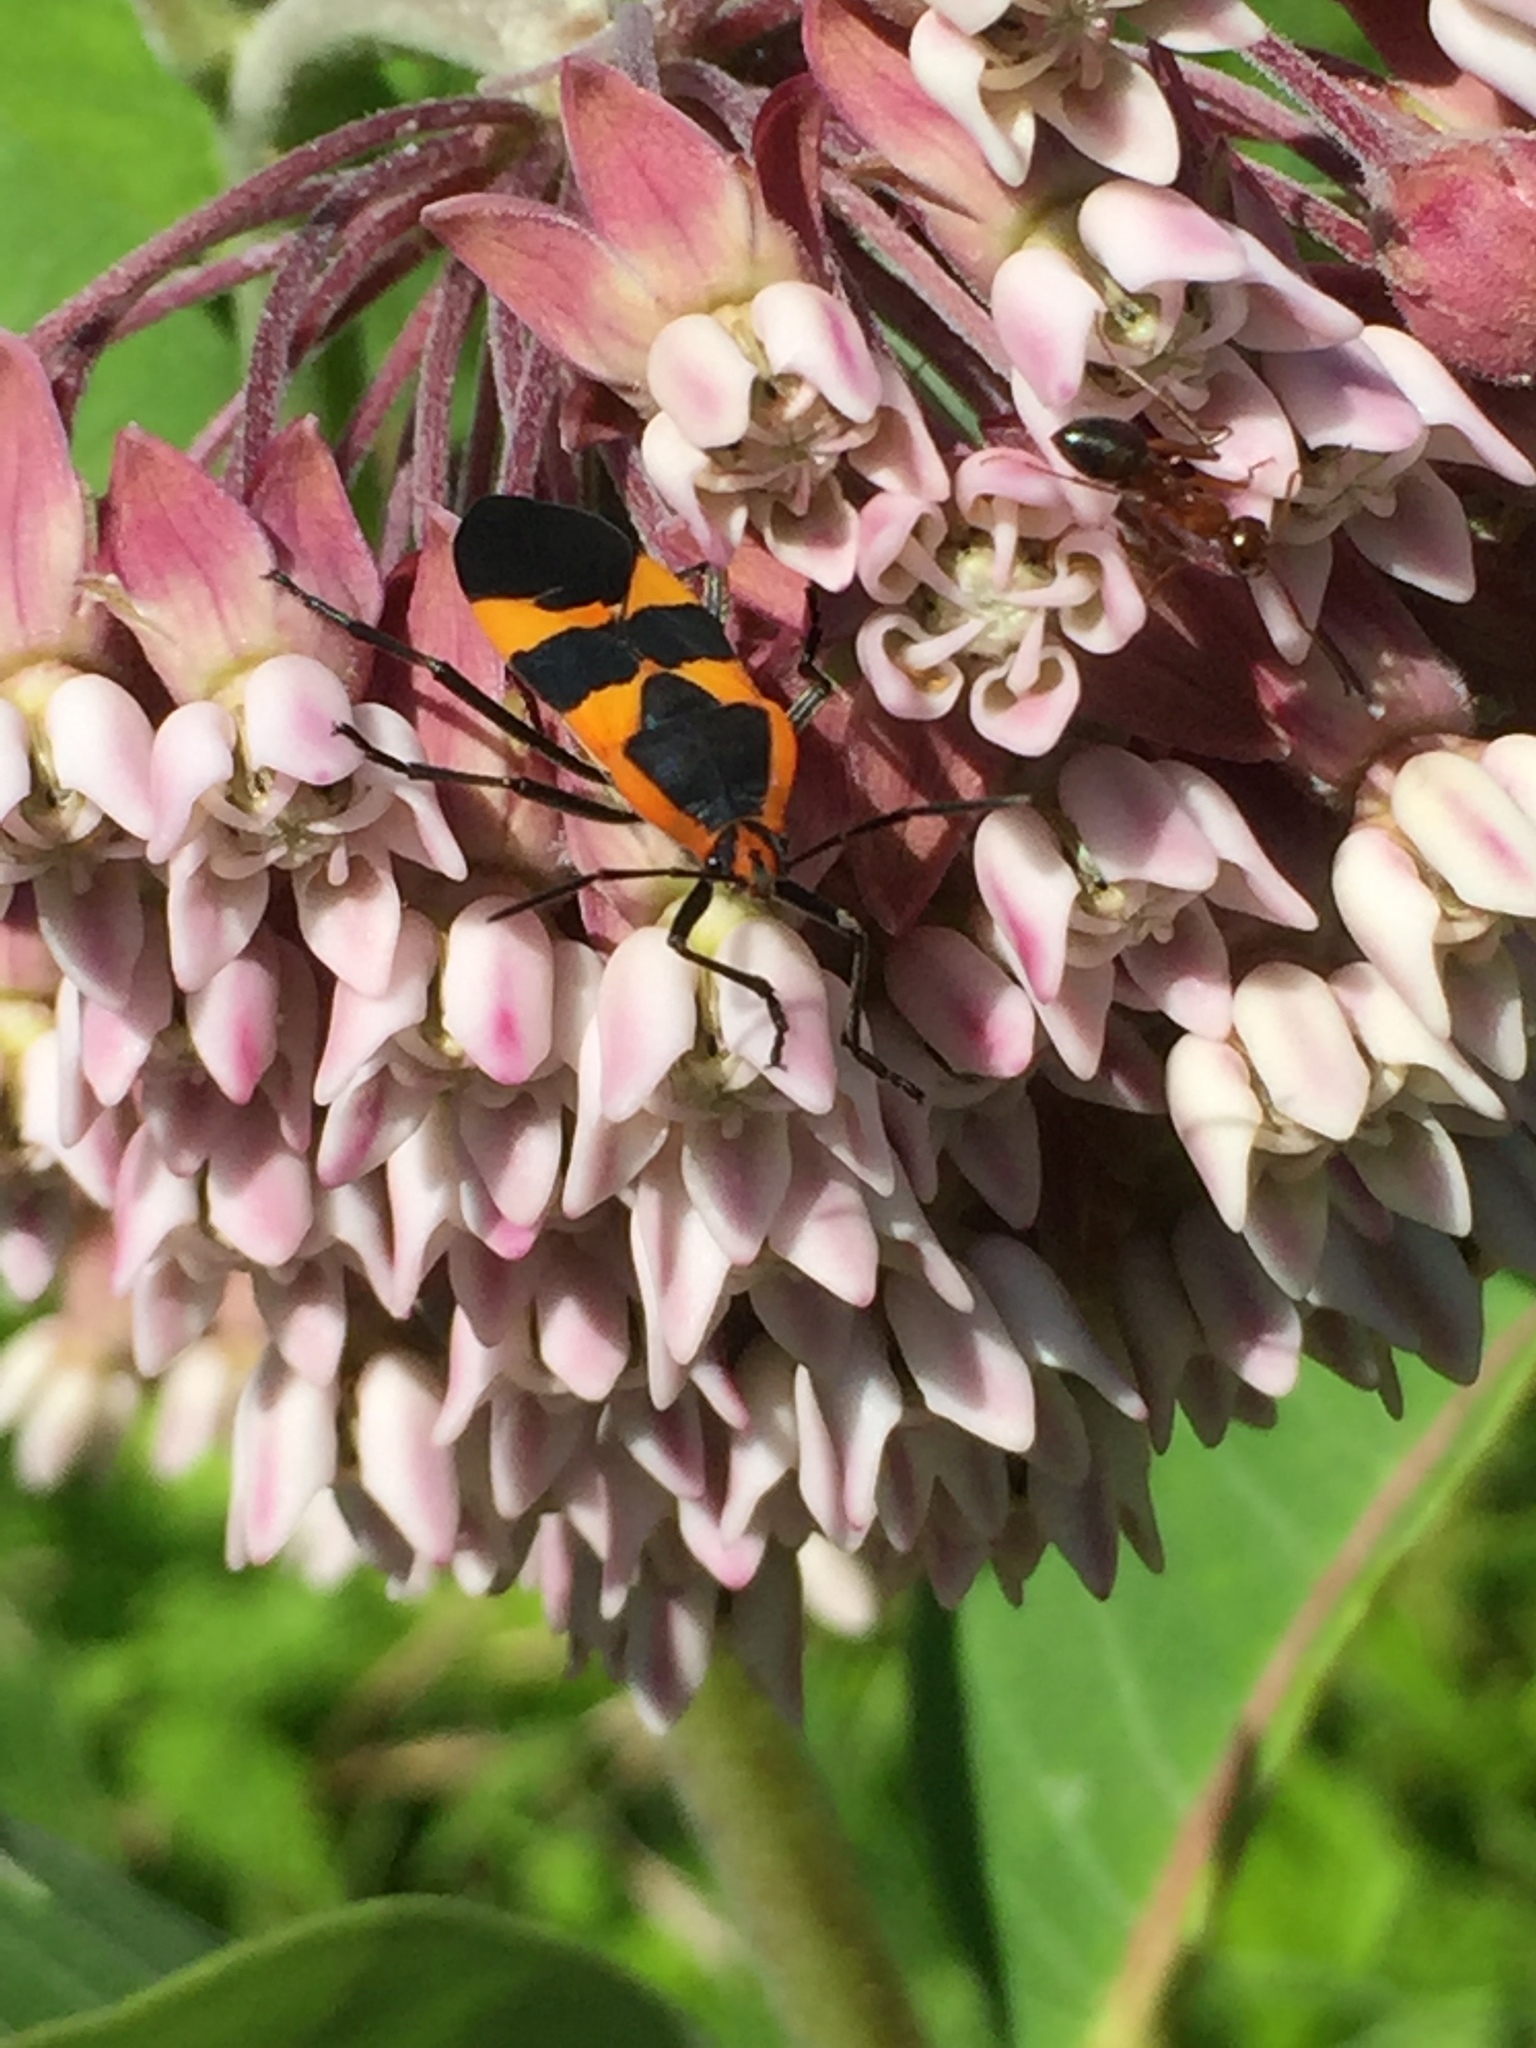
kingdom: Animalia
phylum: Arthropoda
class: Insecta
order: Hemiptera
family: Lygaeidae
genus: Oncopeltus
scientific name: Oncopeltus fasciatus
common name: Large milkweed bug
